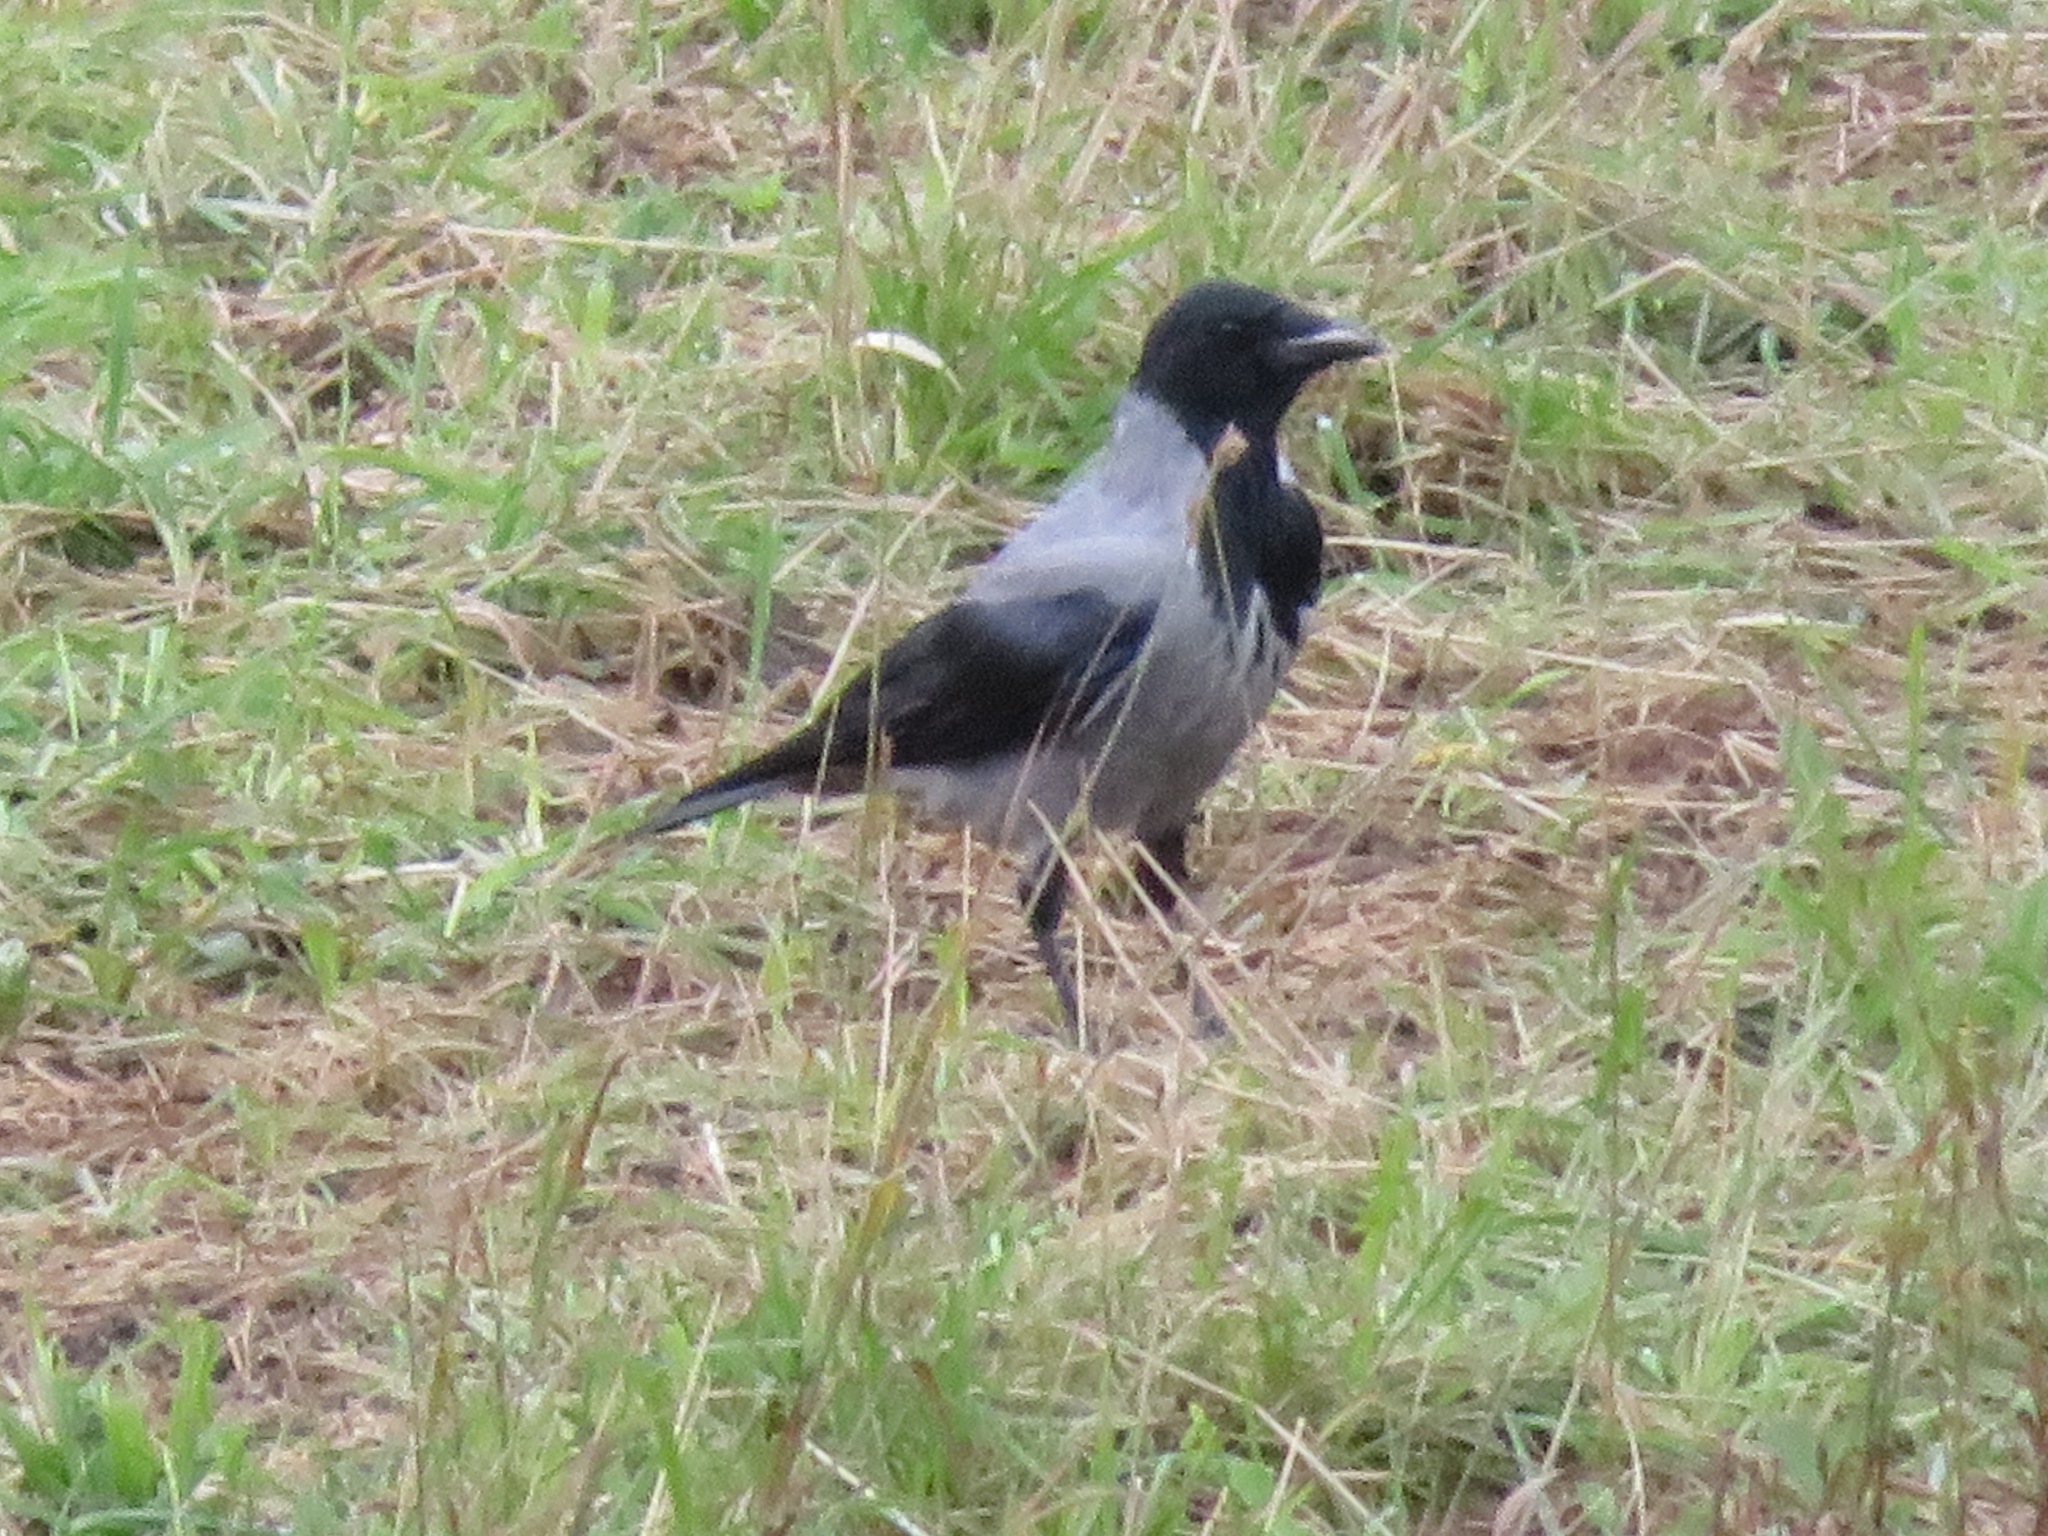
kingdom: Animalia
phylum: Chordata
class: Aves
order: Passeriformes
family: Corvidae
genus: Corvus
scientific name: Corvus cornix
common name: Hooded crow
